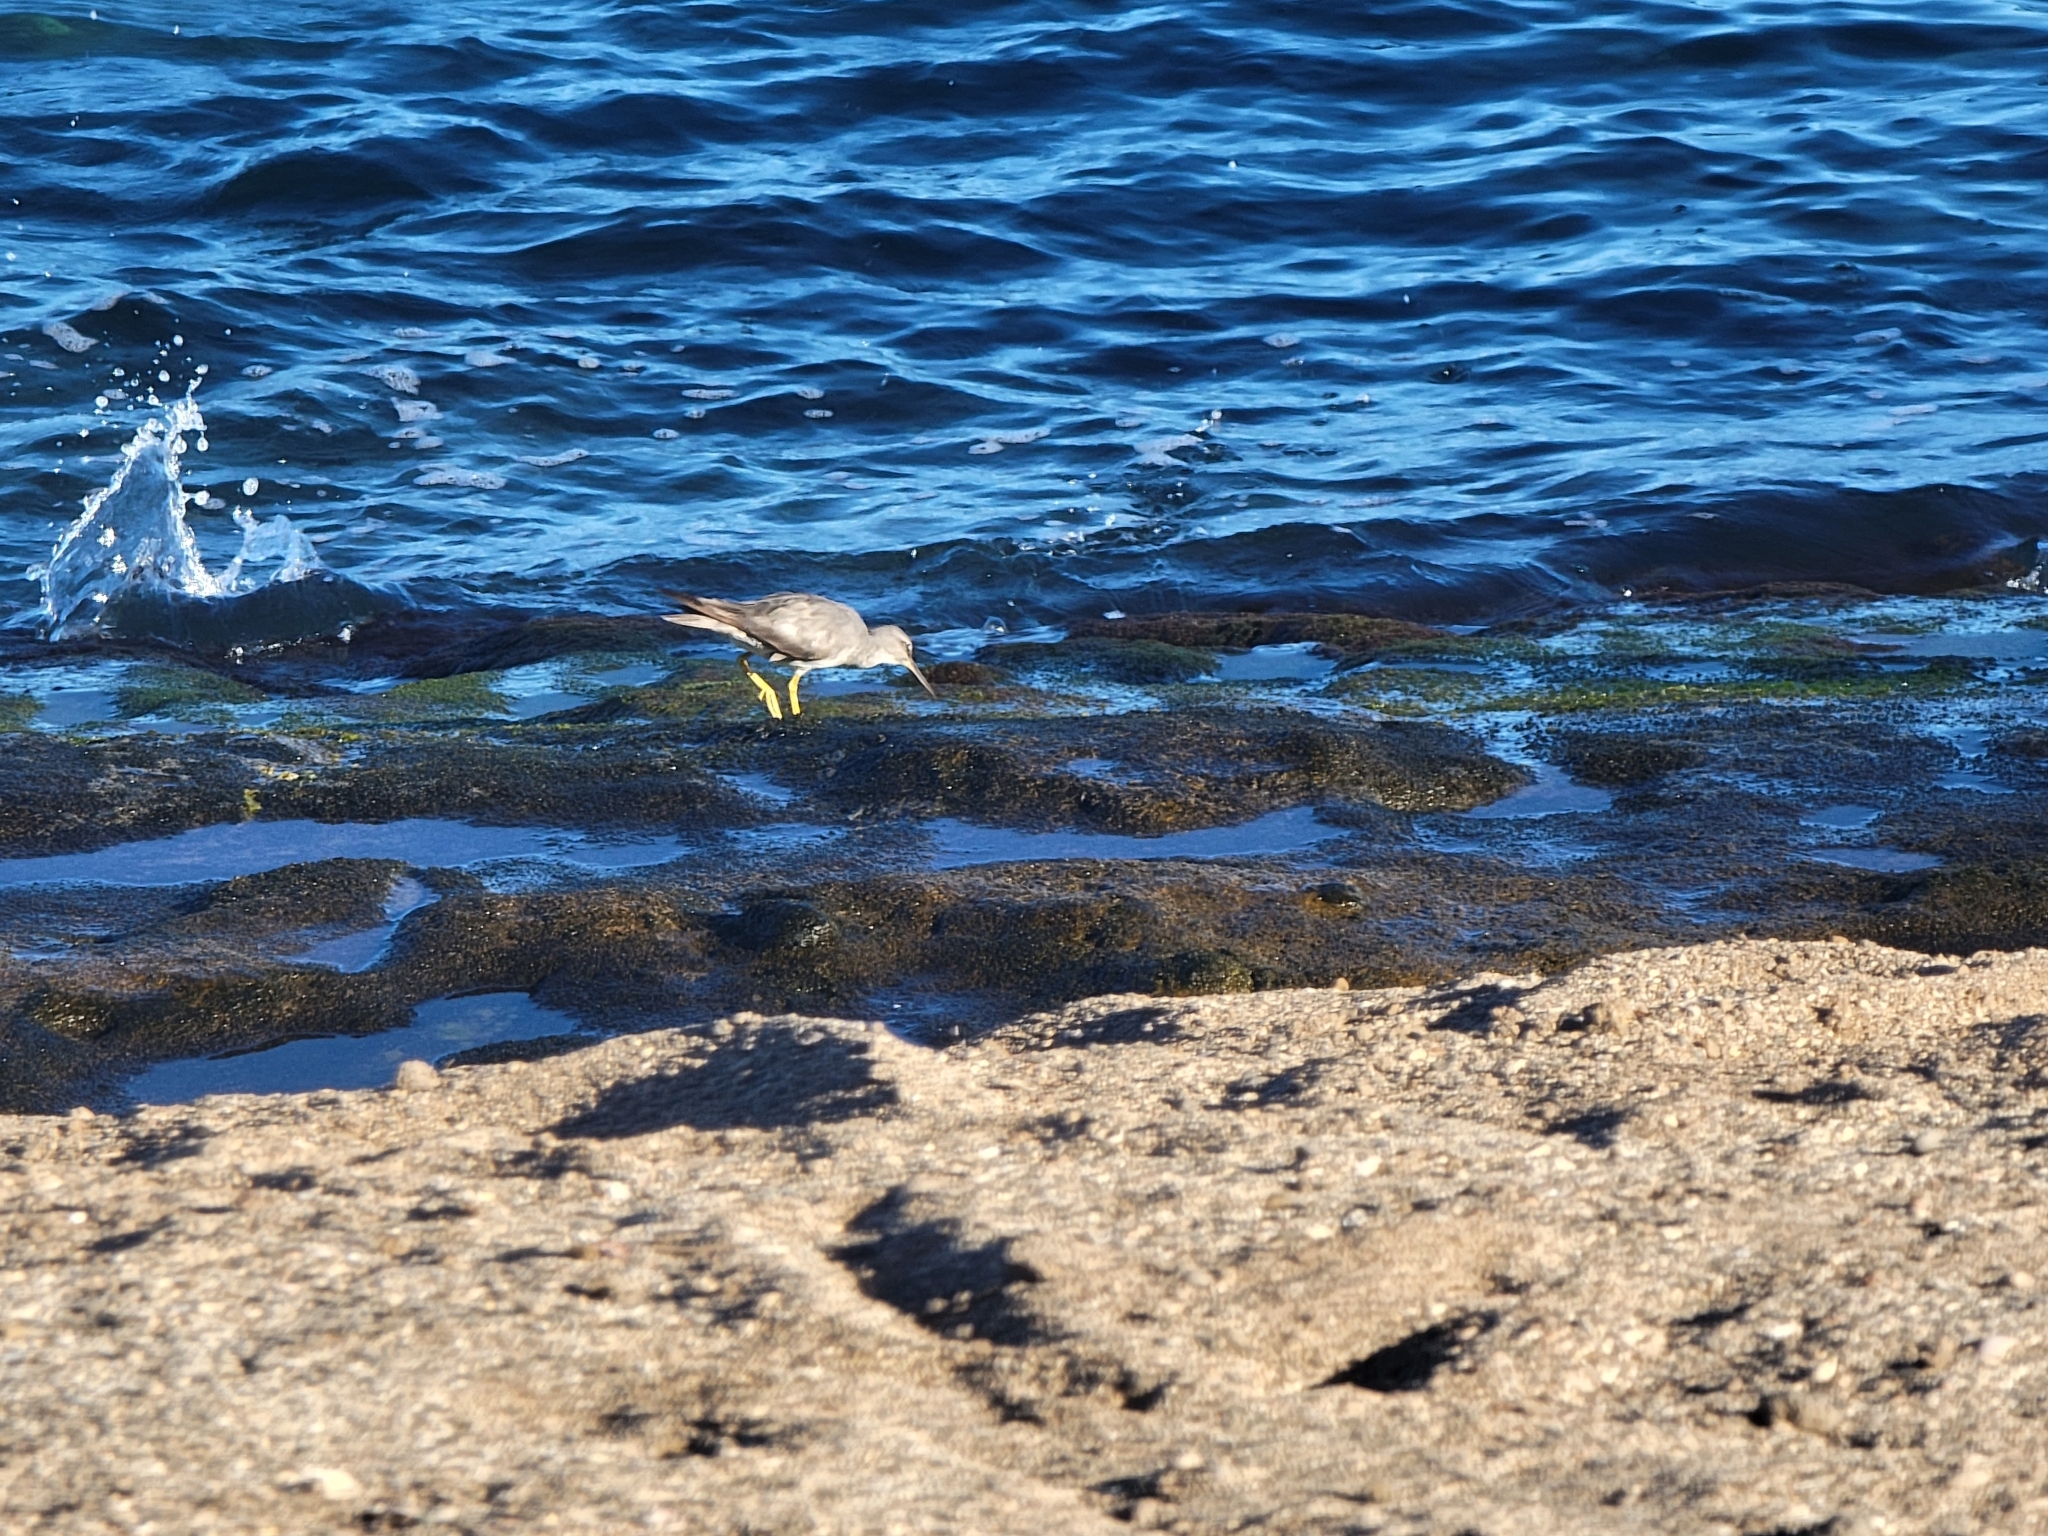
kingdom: Animalia
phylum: Chordata
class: Aves
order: Charadriiformes
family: Scolopacidae
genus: Tringa
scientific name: Tringa incana
